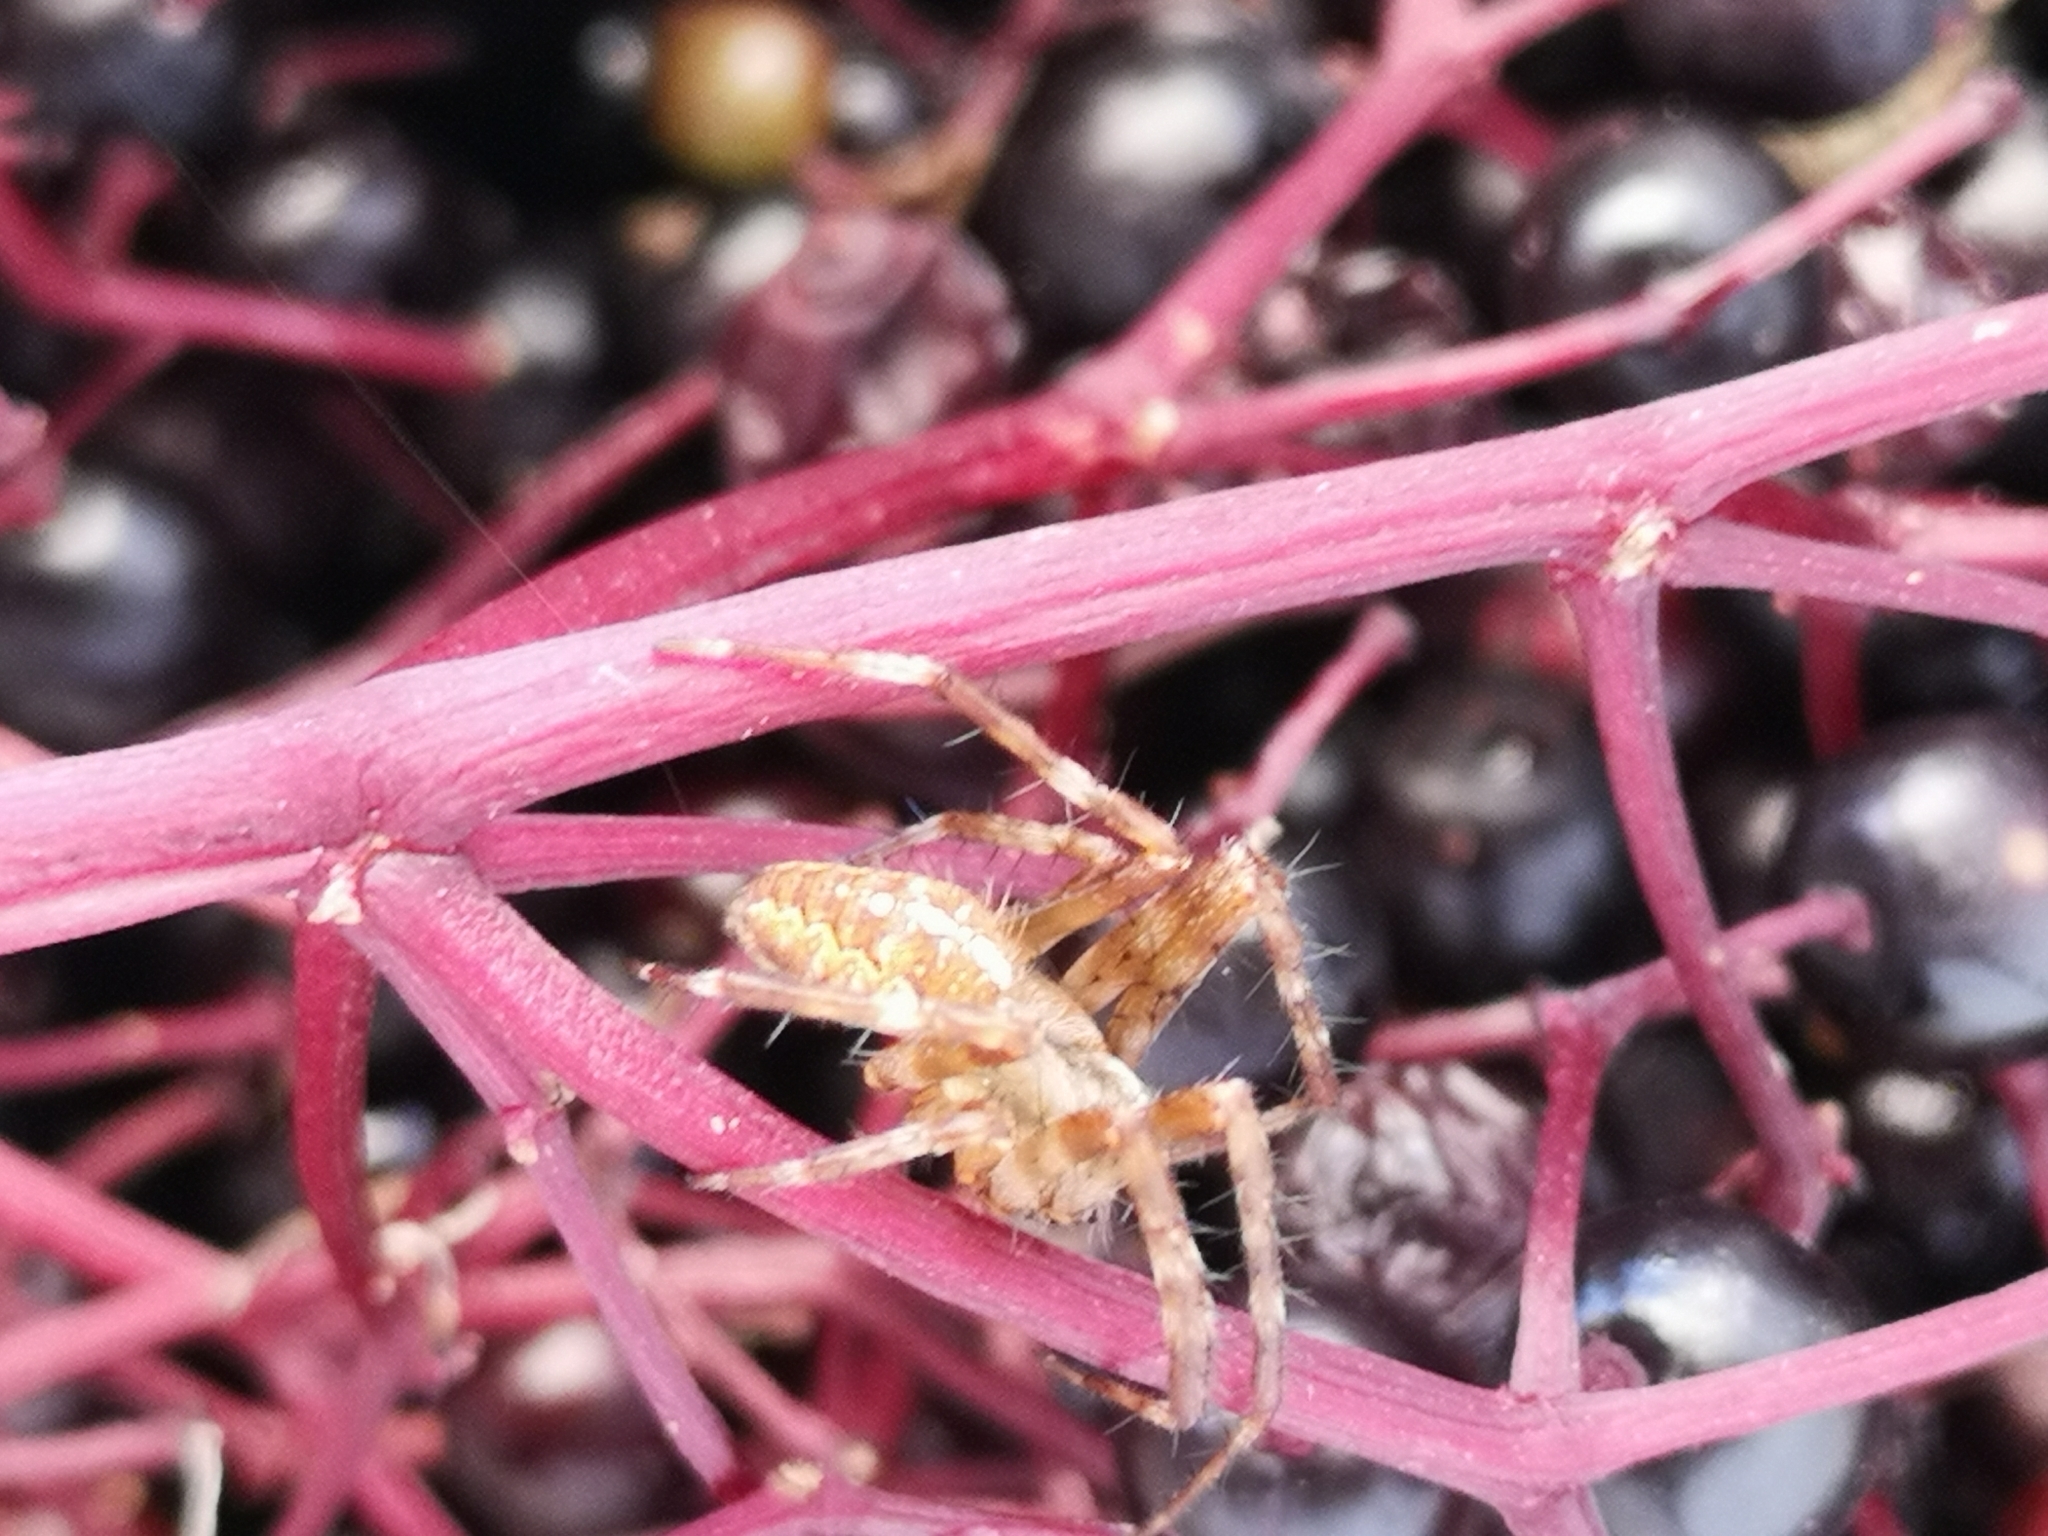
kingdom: Animalia
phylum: Arthropoda
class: Arachnida
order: Araneae
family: Araneidae
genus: Araneus
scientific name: Araneus diadematus
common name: Cross orbweaver
